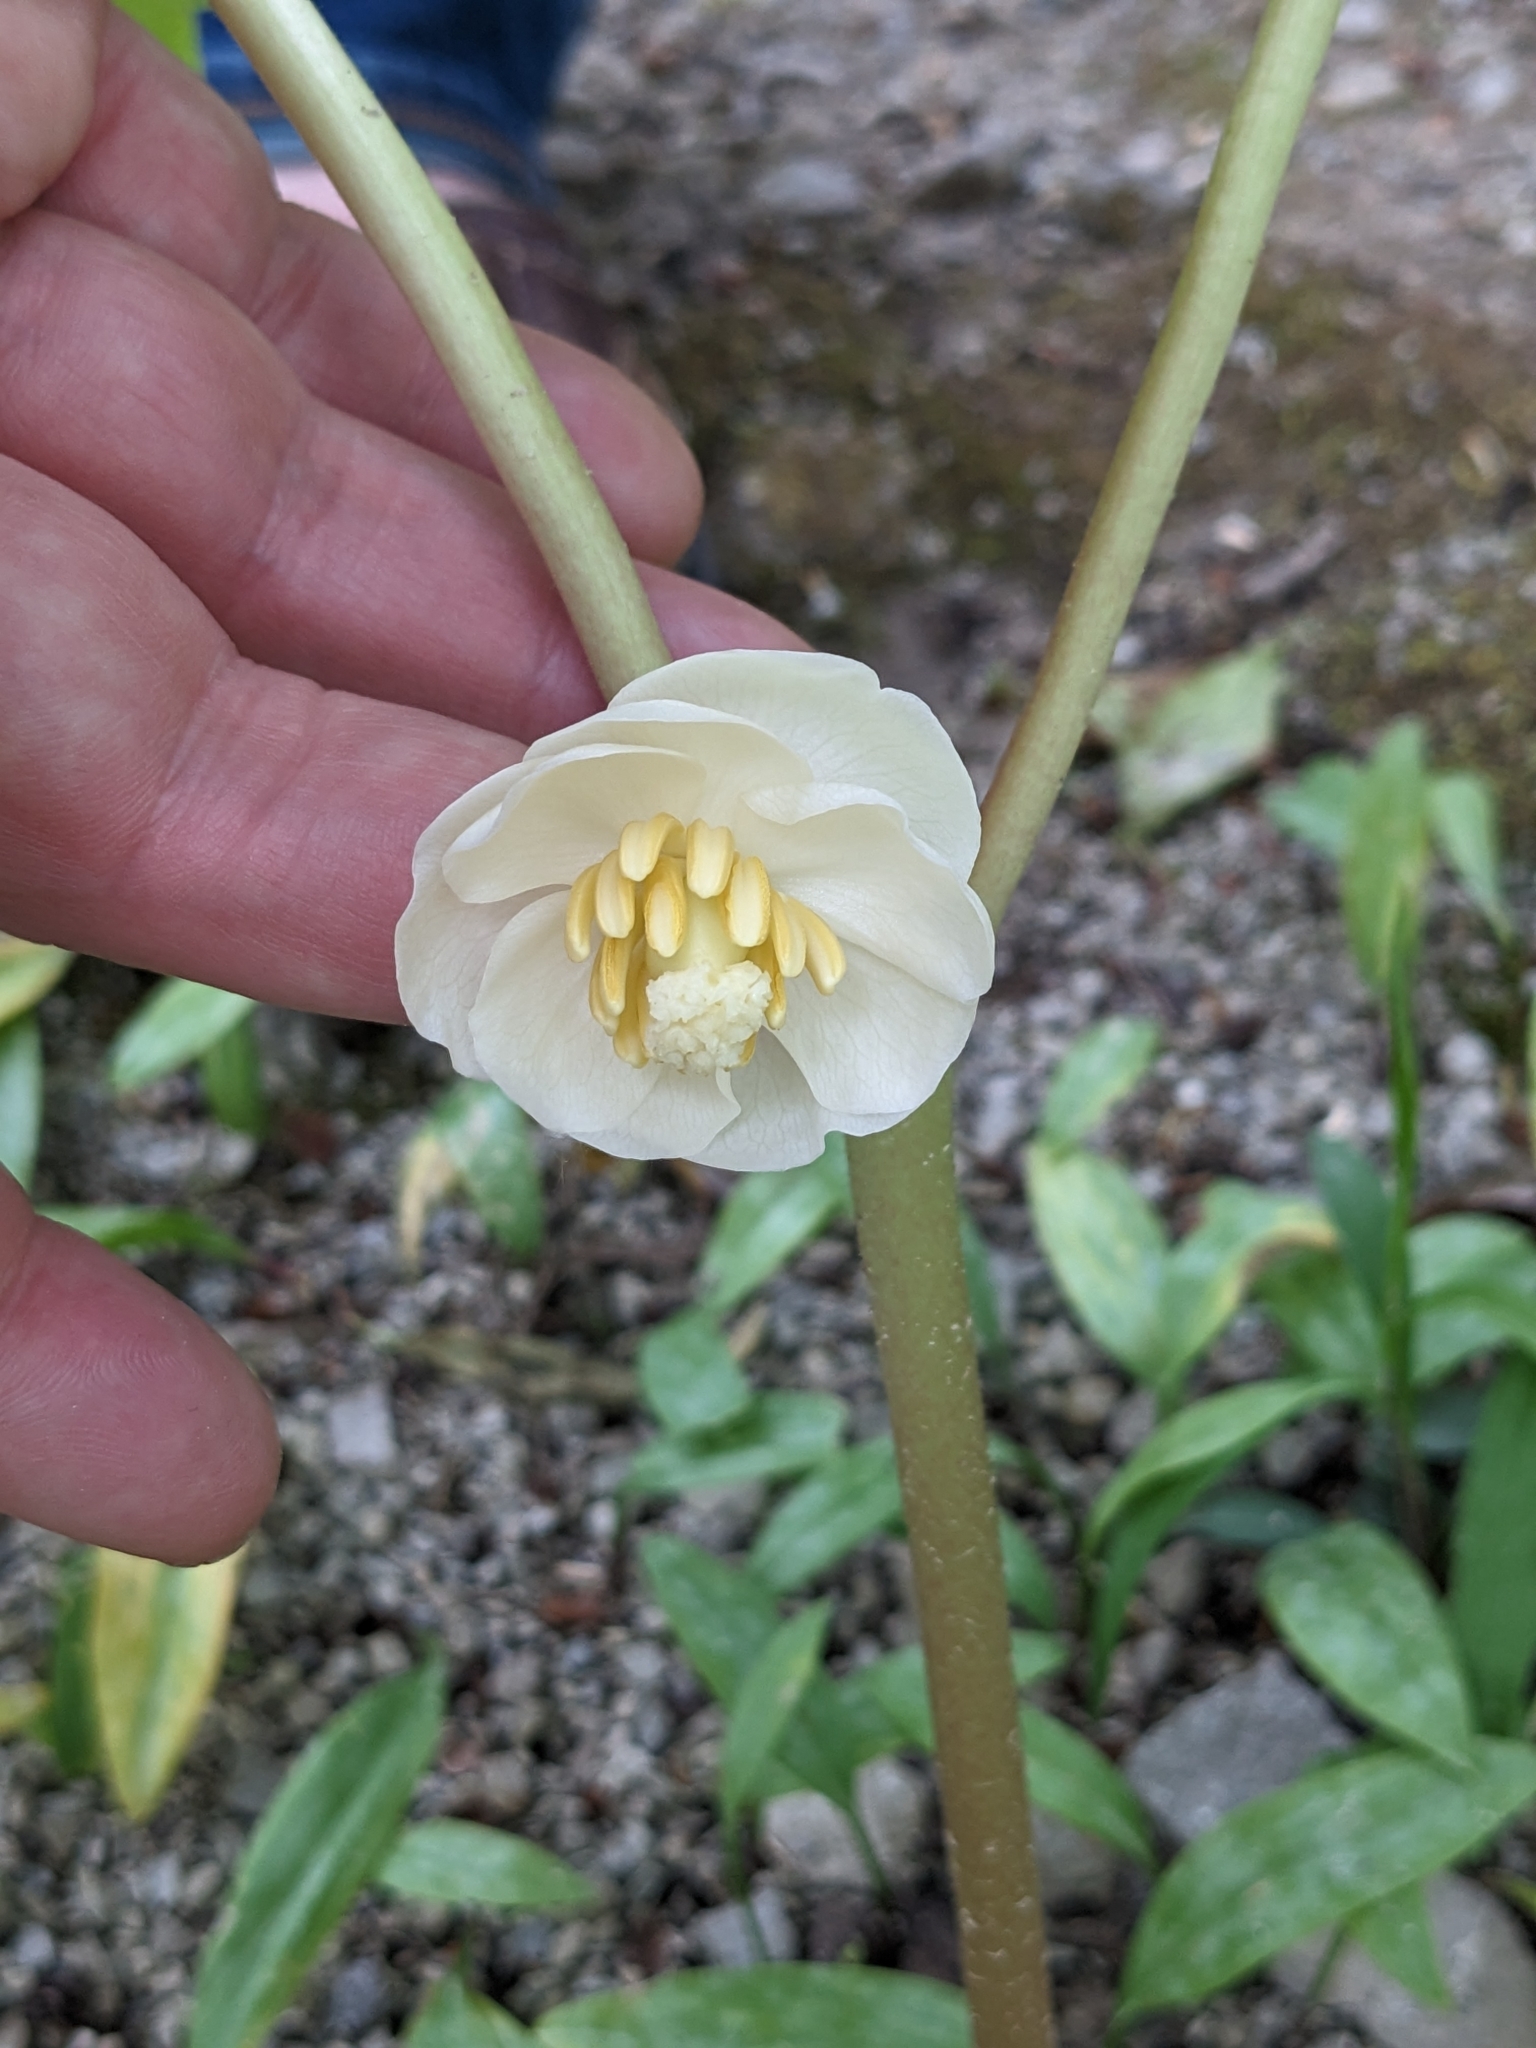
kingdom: Plantae
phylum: Tracheophyta
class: Magnoliopsida
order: Ranunculales
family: Berberidaceae
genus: Podophyllum
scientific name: Podophyllum peltatum
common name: Wild mandrake
